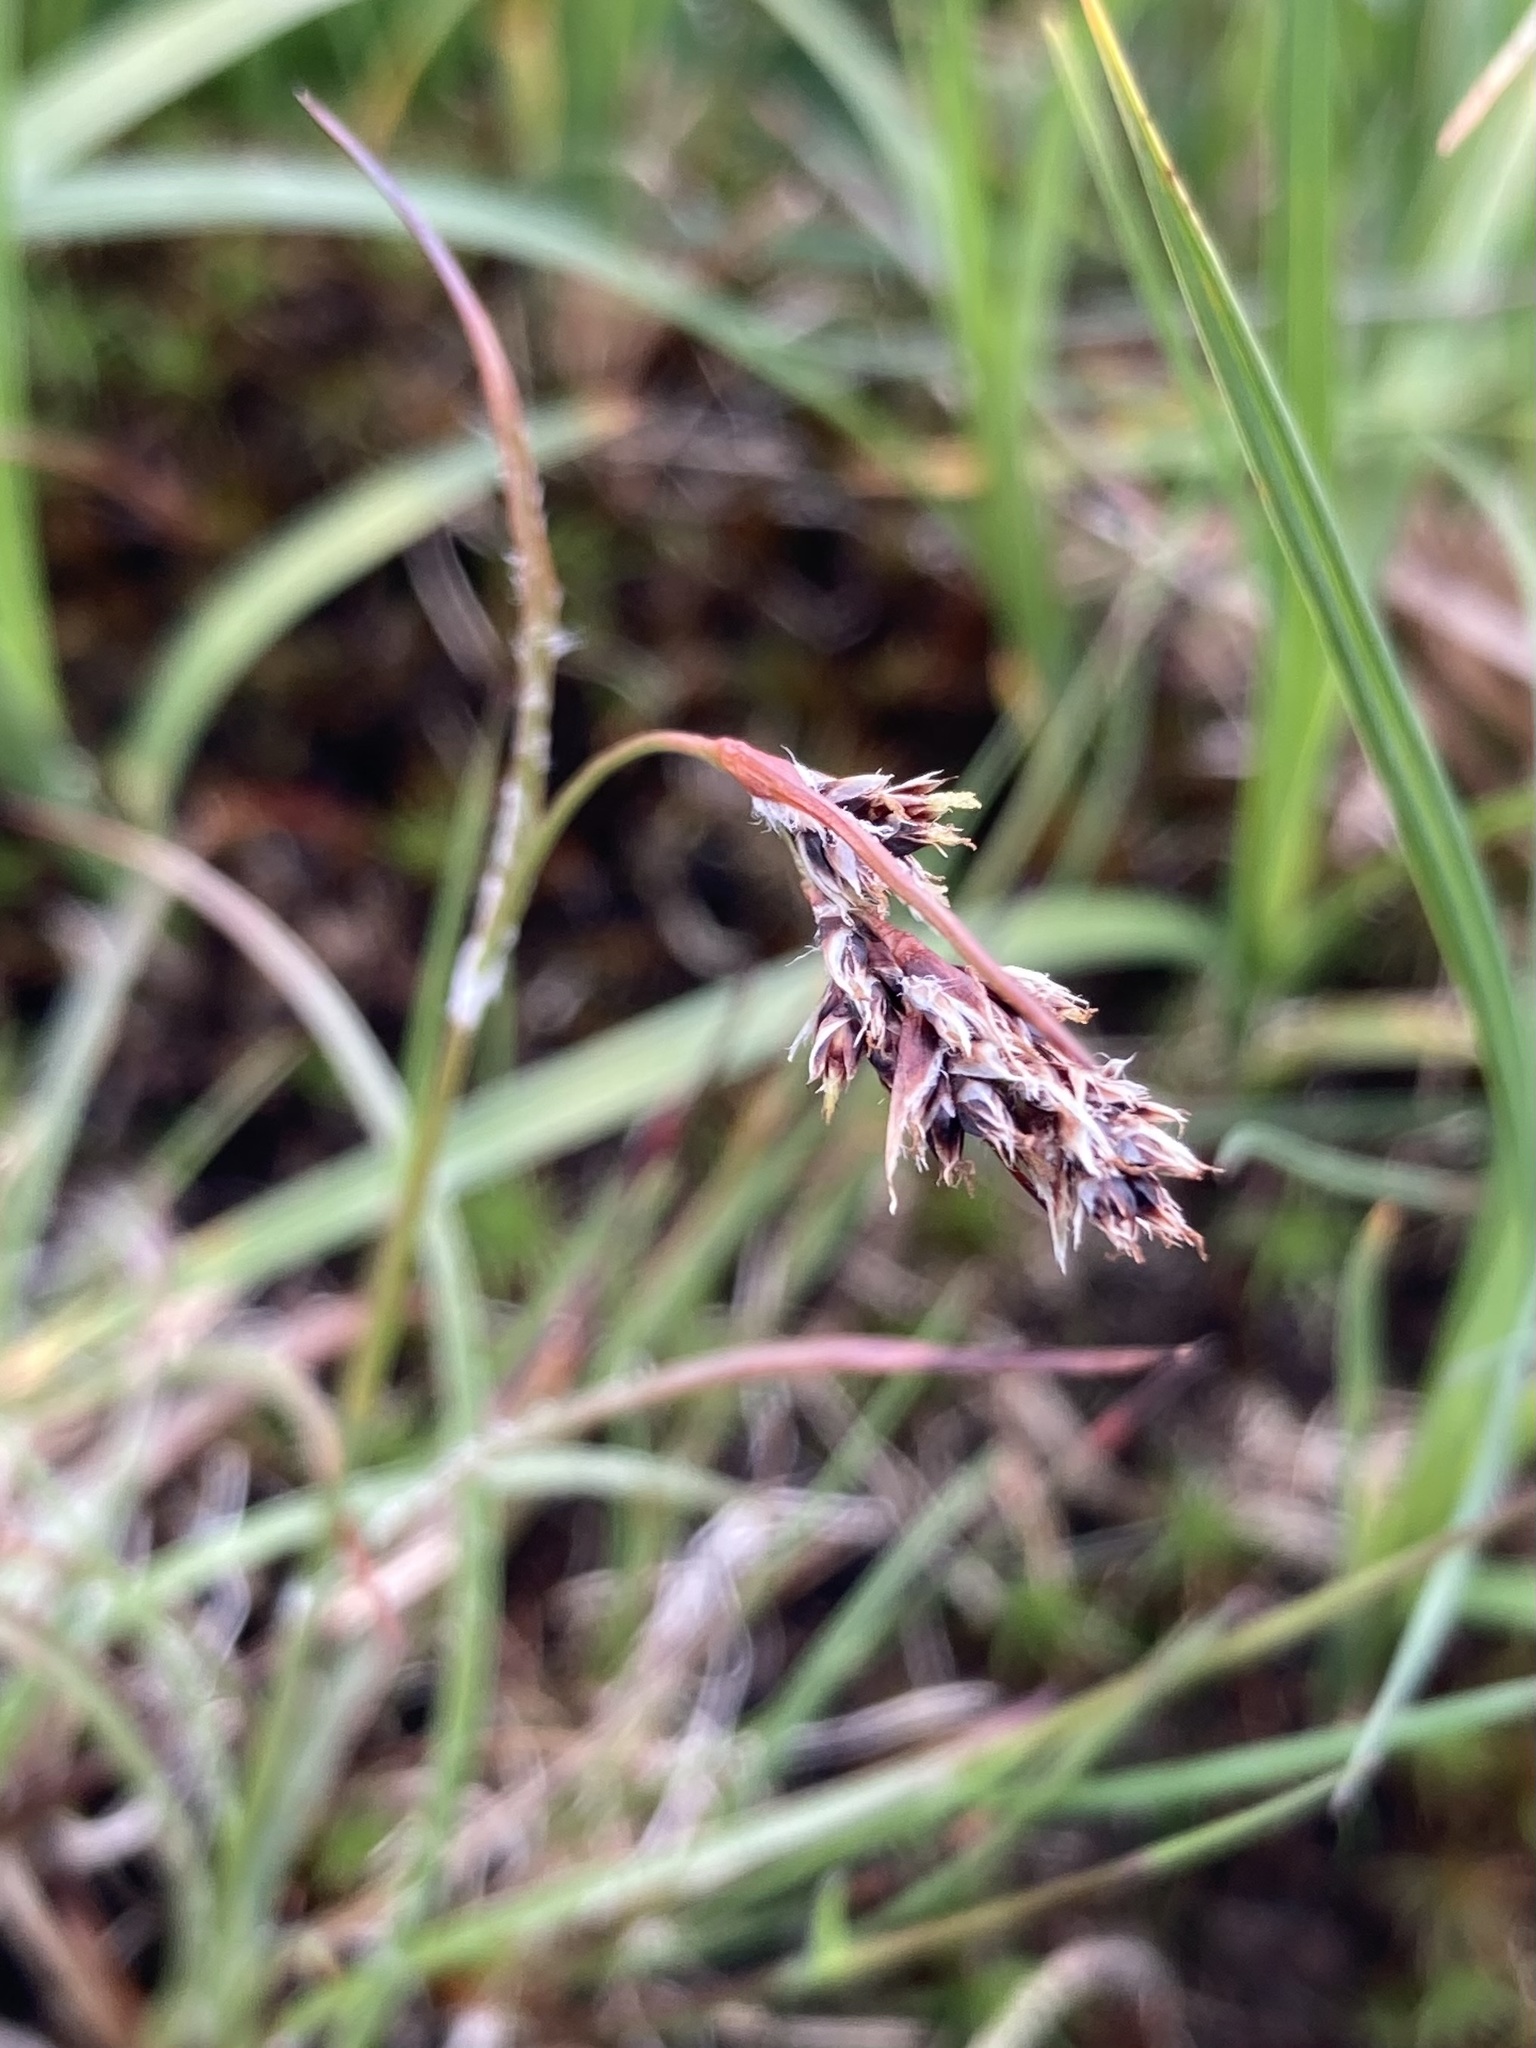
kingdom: Plantae
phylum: Tracheophyta
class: Liliopsida
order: Poales
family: Juncaceae
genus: Luzula
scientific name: Luzula spicata
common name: Spiked wood-rush
